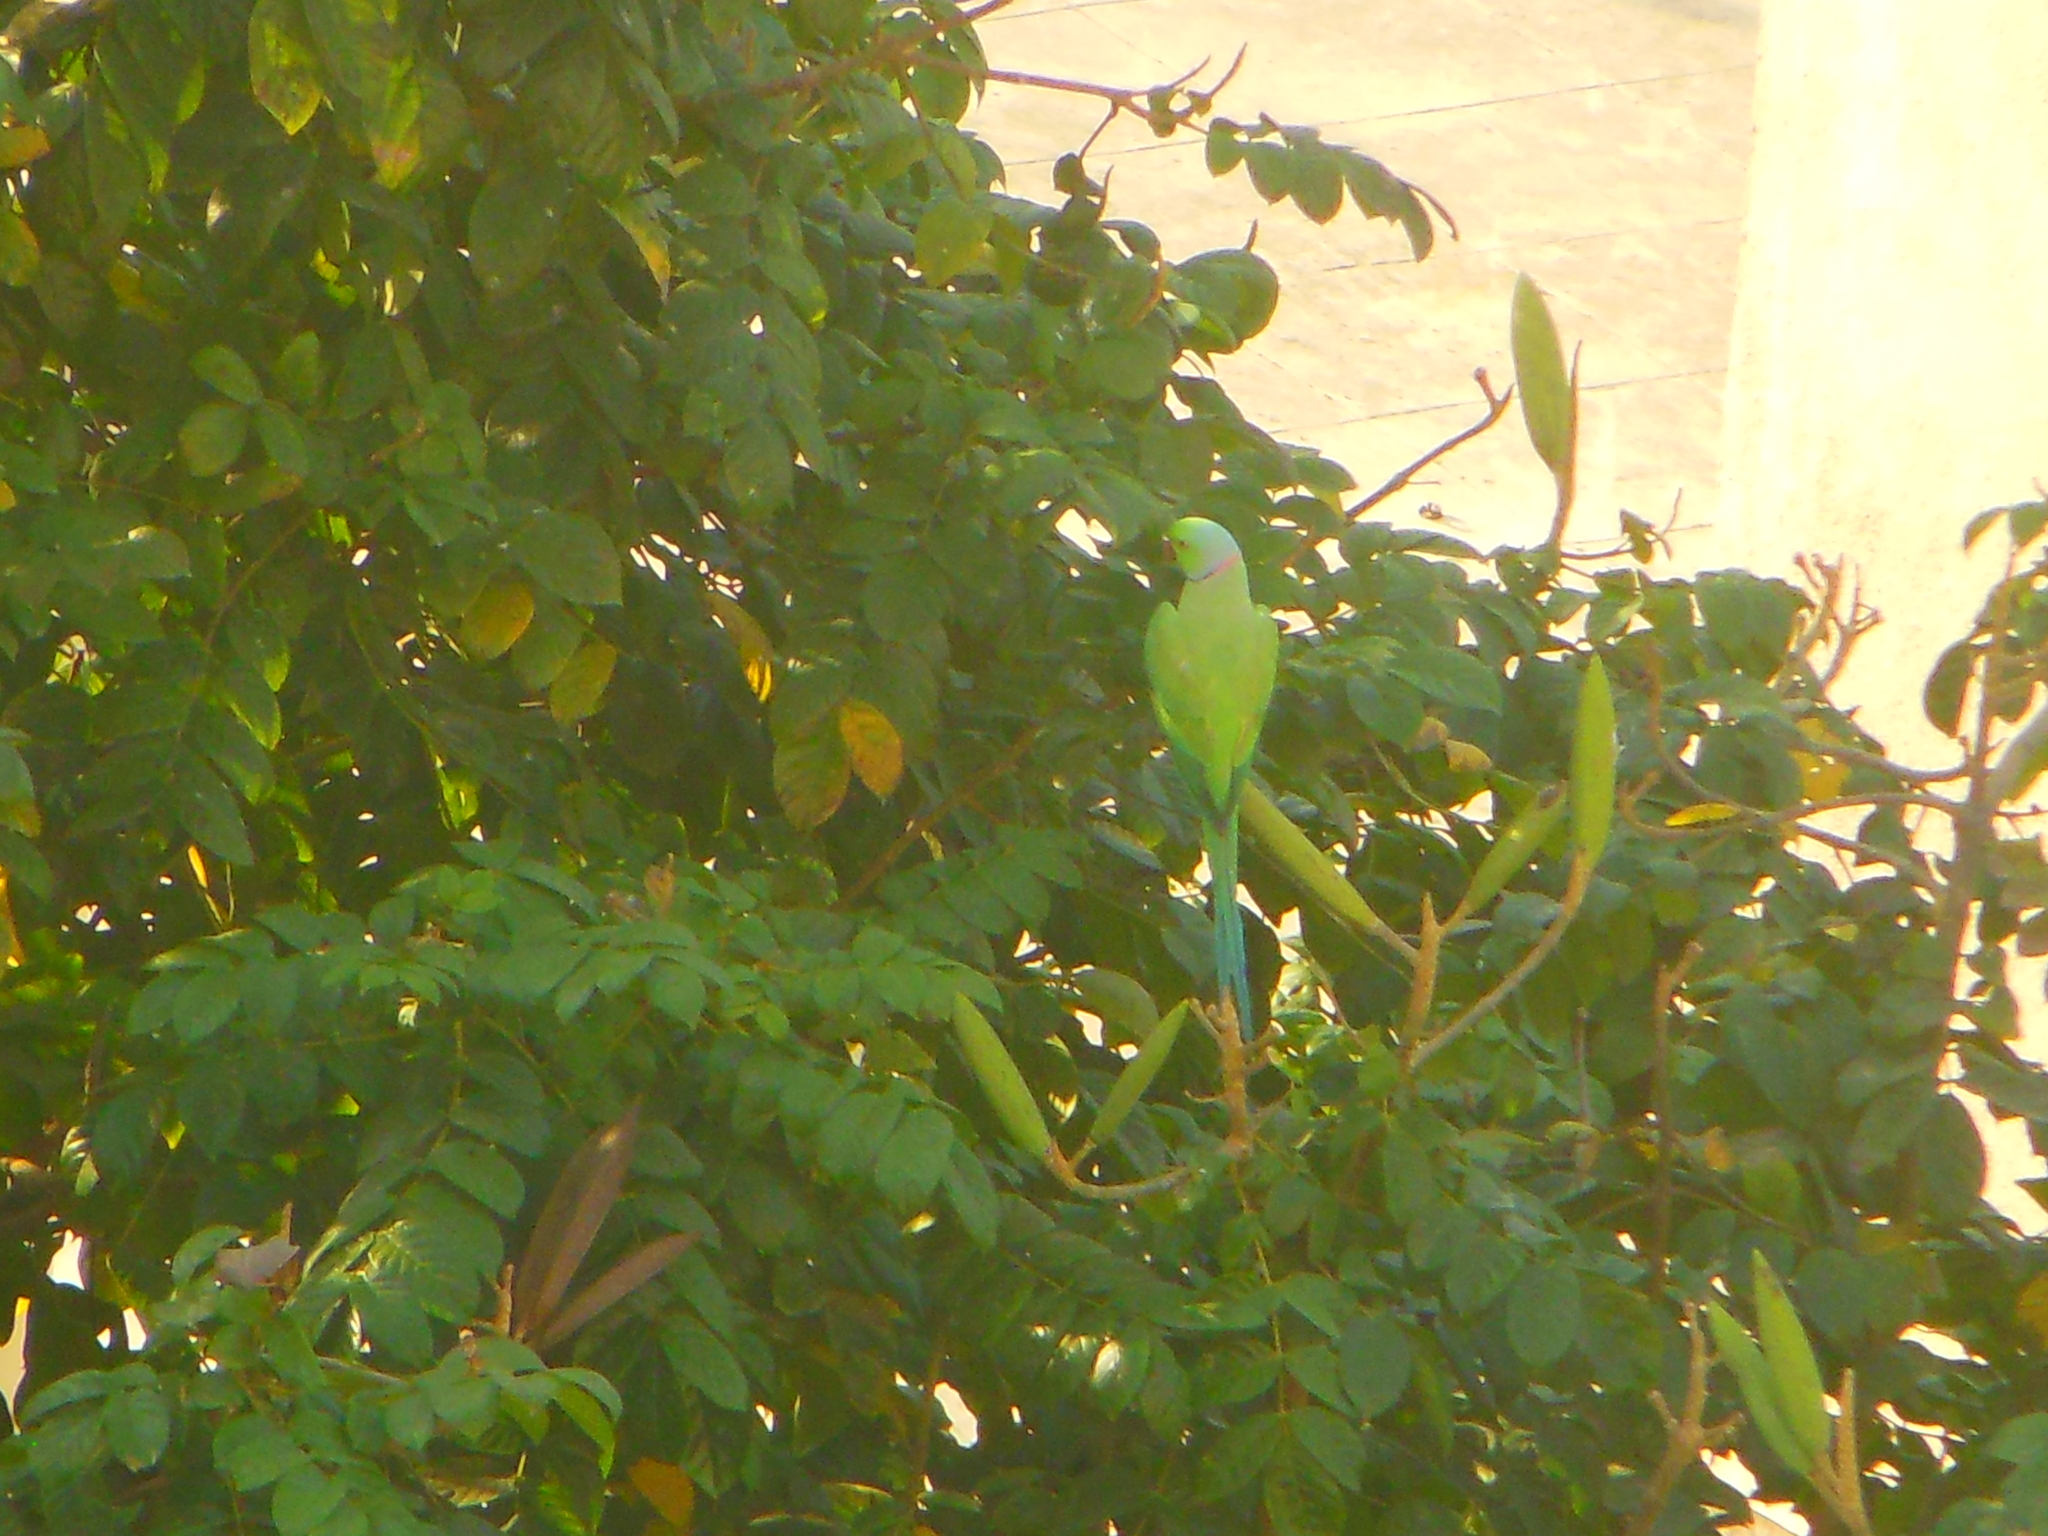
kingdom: Animalia
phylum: Chordata
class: Aves
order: Psittaciformes
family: Psittacidae
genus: Psittacula
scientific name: Psittacula krameri
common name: Rose-ringed parakeet
